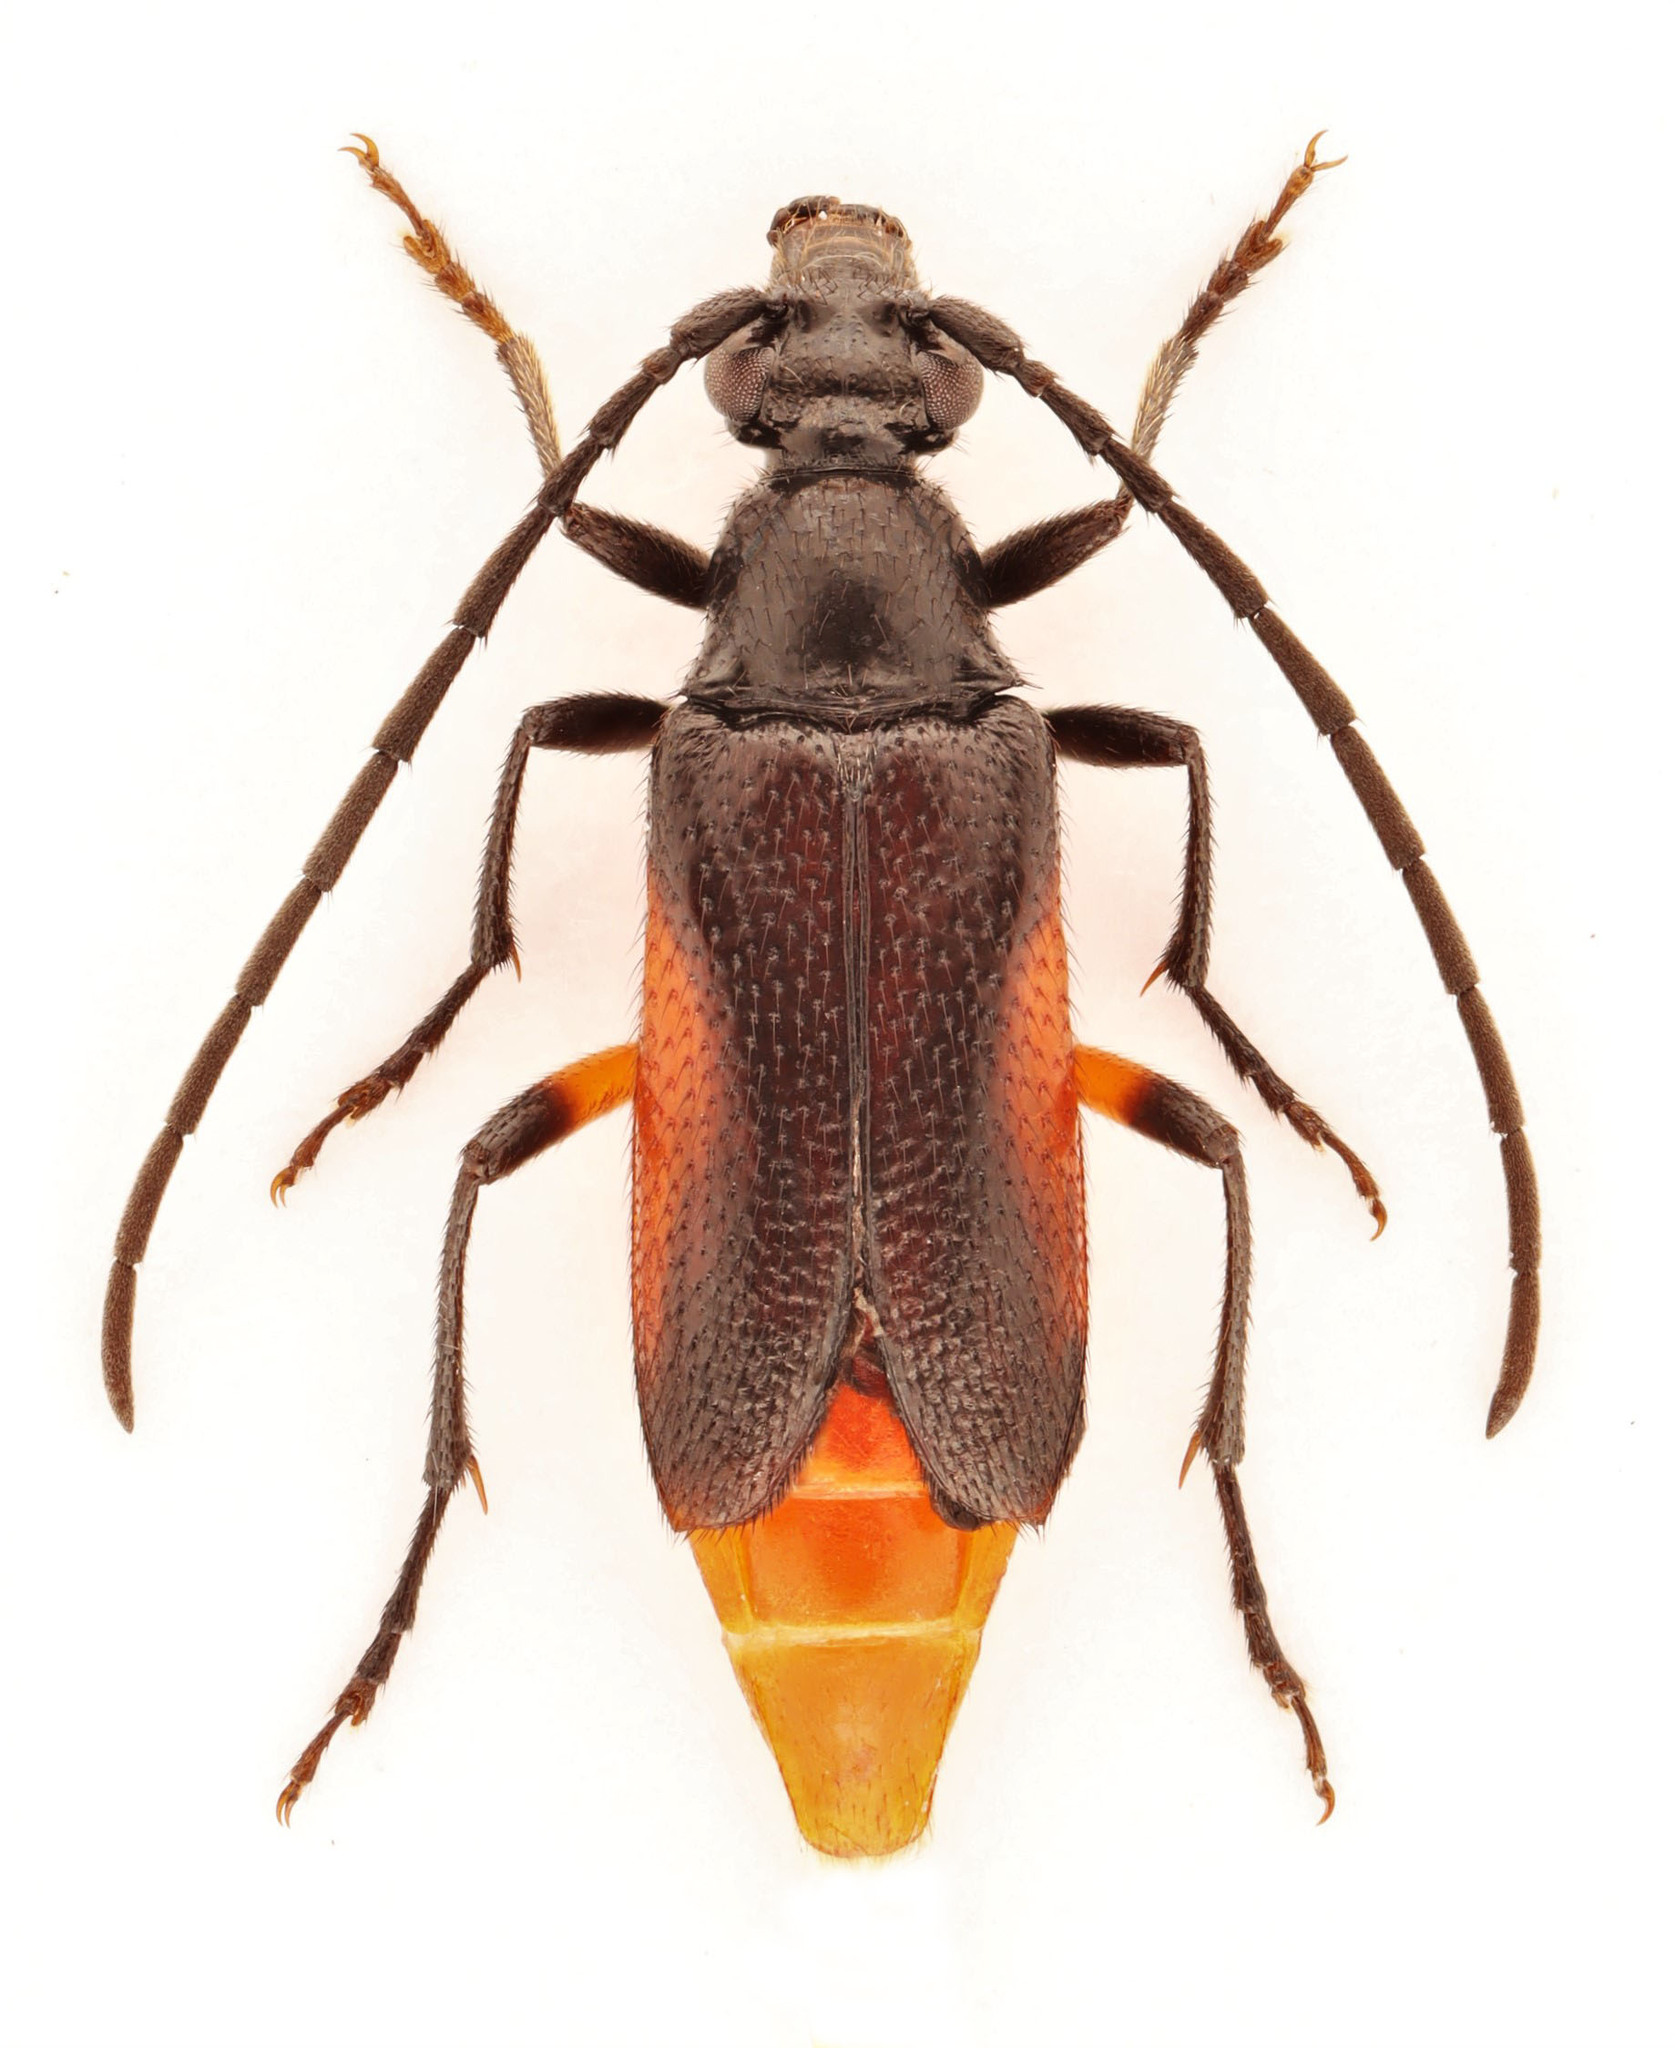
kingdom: Animalia
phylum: Arthropoda
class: Insecta
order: Coleoptera
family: Cerambycidae
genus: Pseudostrangalia
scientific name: Pseudostrangalia cruentata
